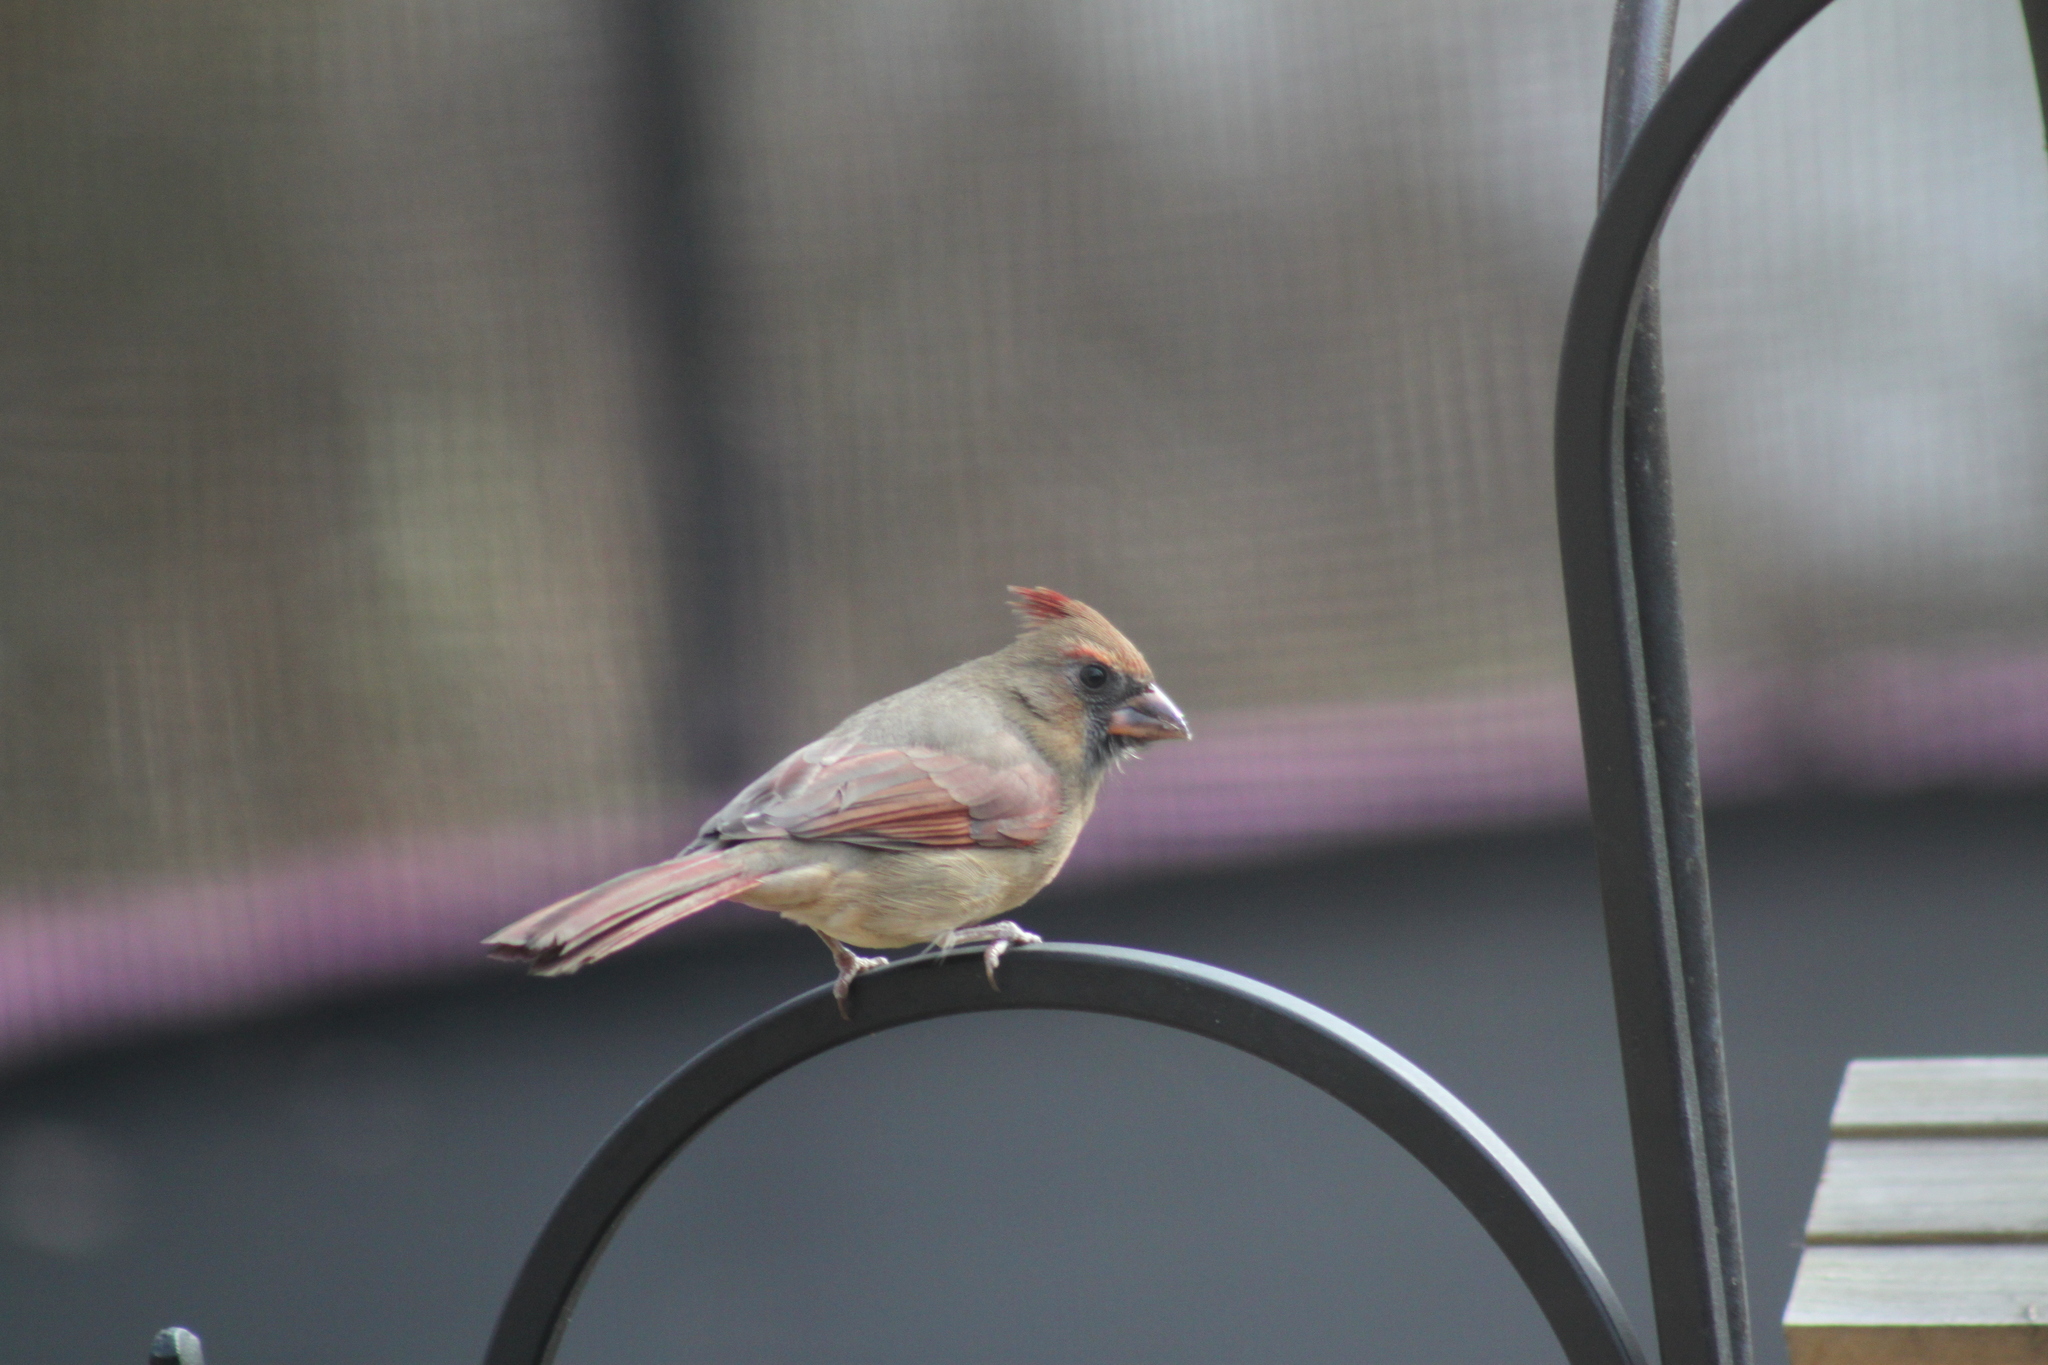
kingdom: Animalia
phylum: Chordata
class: Aves
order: Passeriformes
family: Cardinalidae
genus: Cardinalis
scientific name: Cardinalis cardinalis
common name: Northern cardinal
